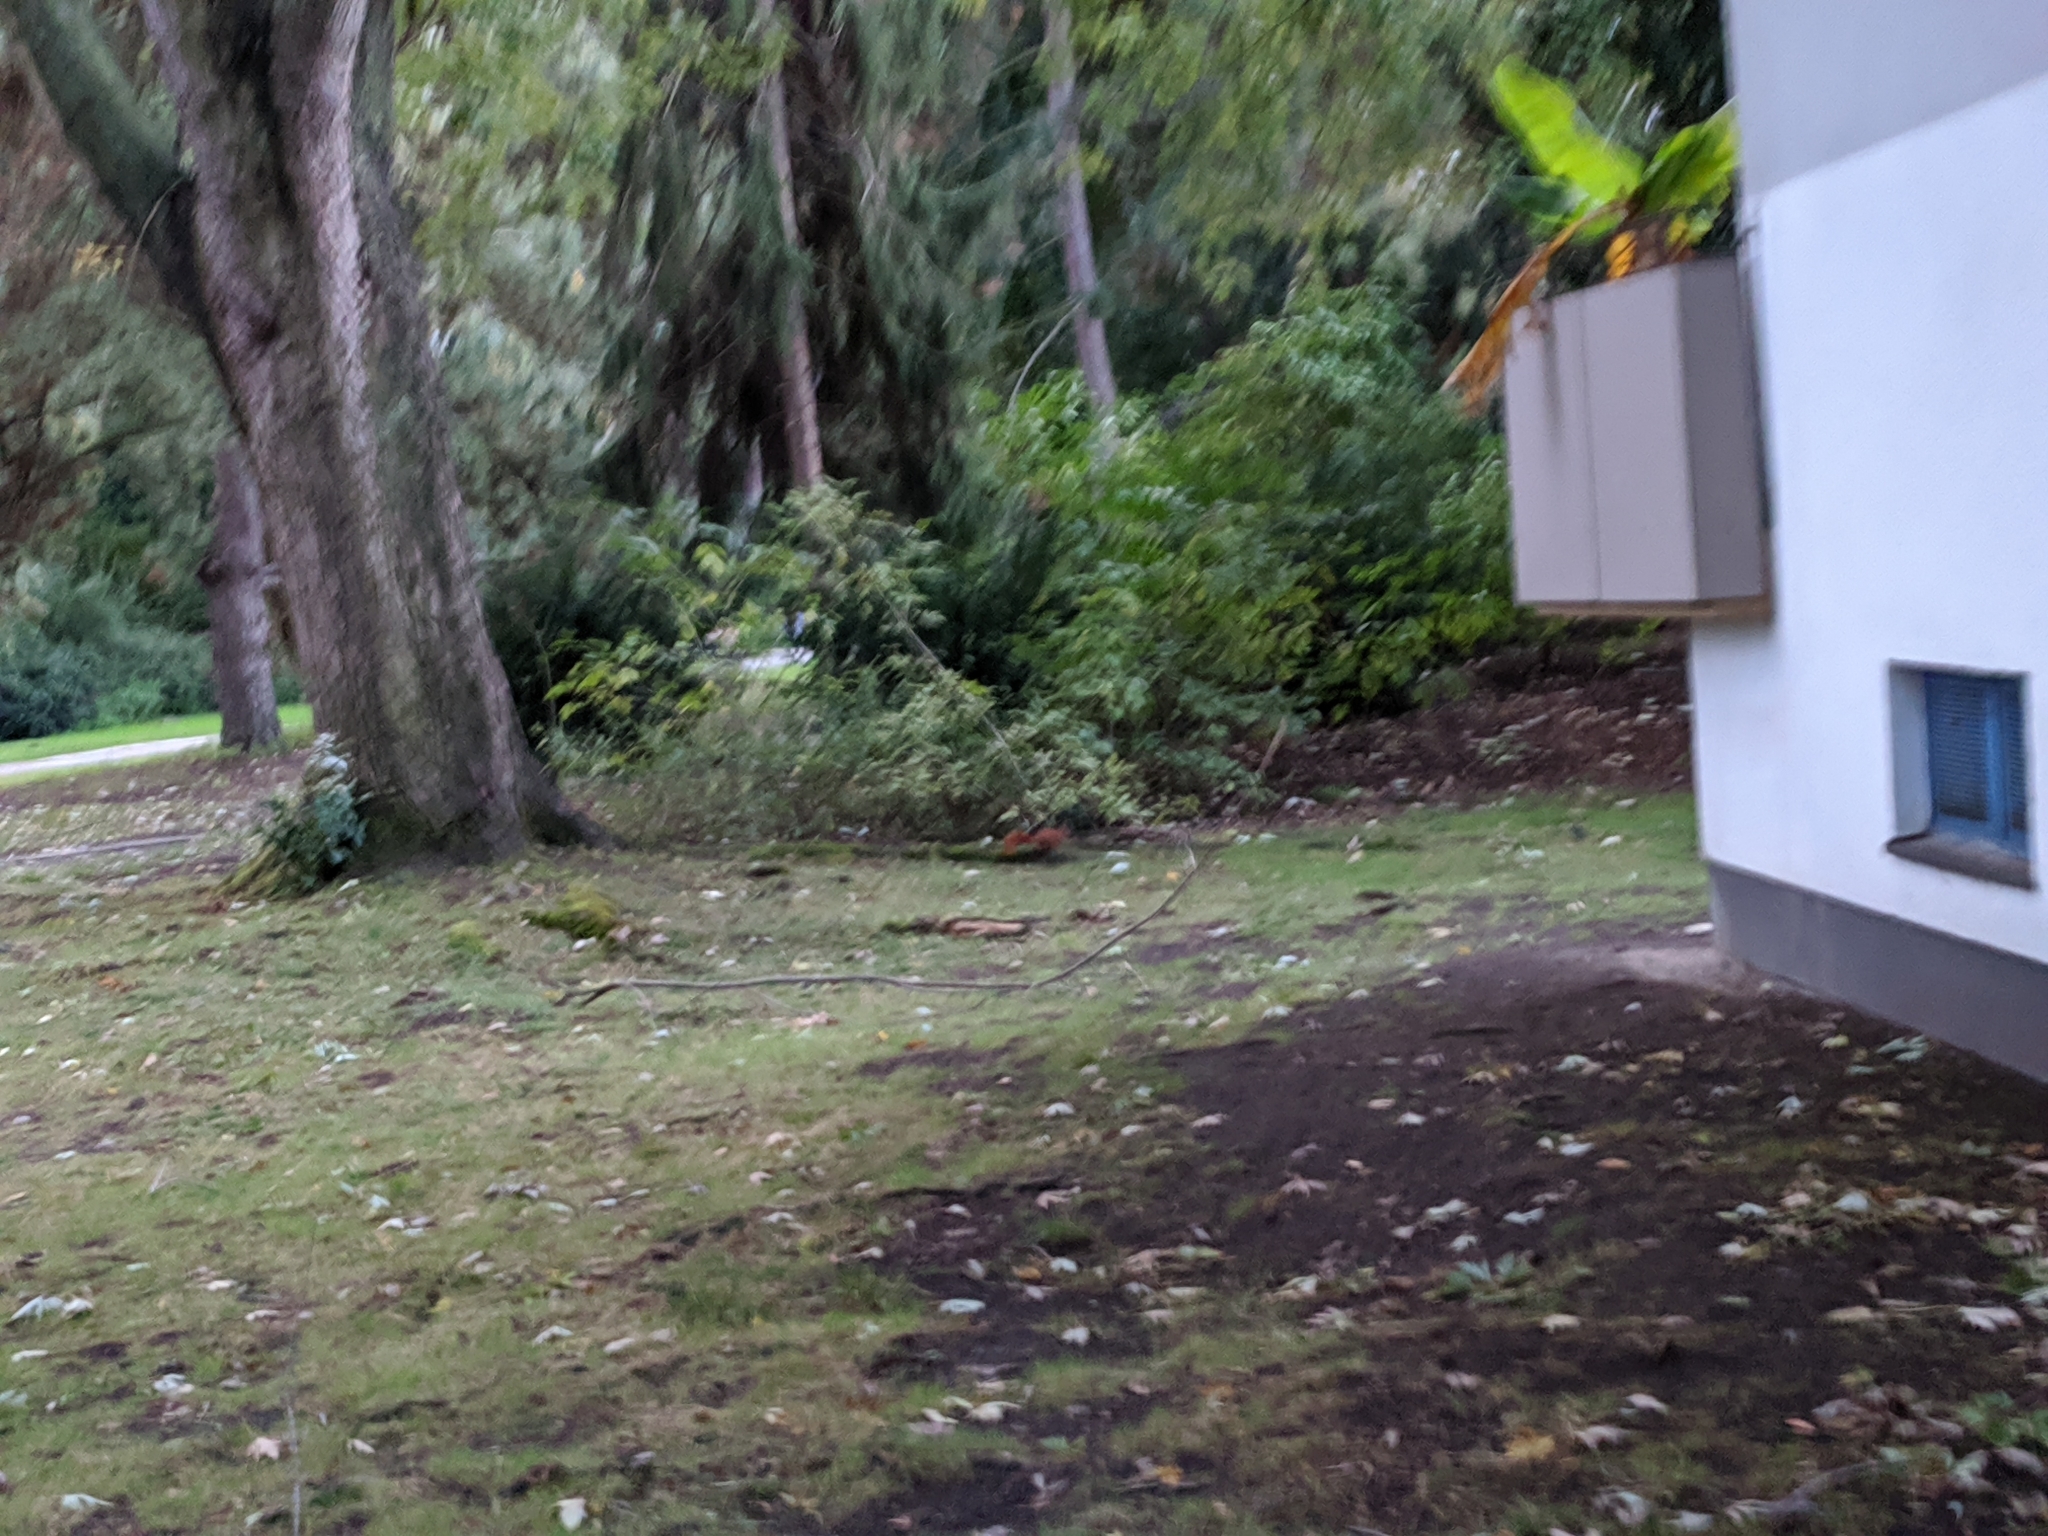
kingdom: Animalia
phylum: Chordata
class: Mammalia
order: Rodentia
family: Sciuridae
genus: Sciurus
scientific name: Sciurus vulgaris
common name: Eurasian red squirrel
